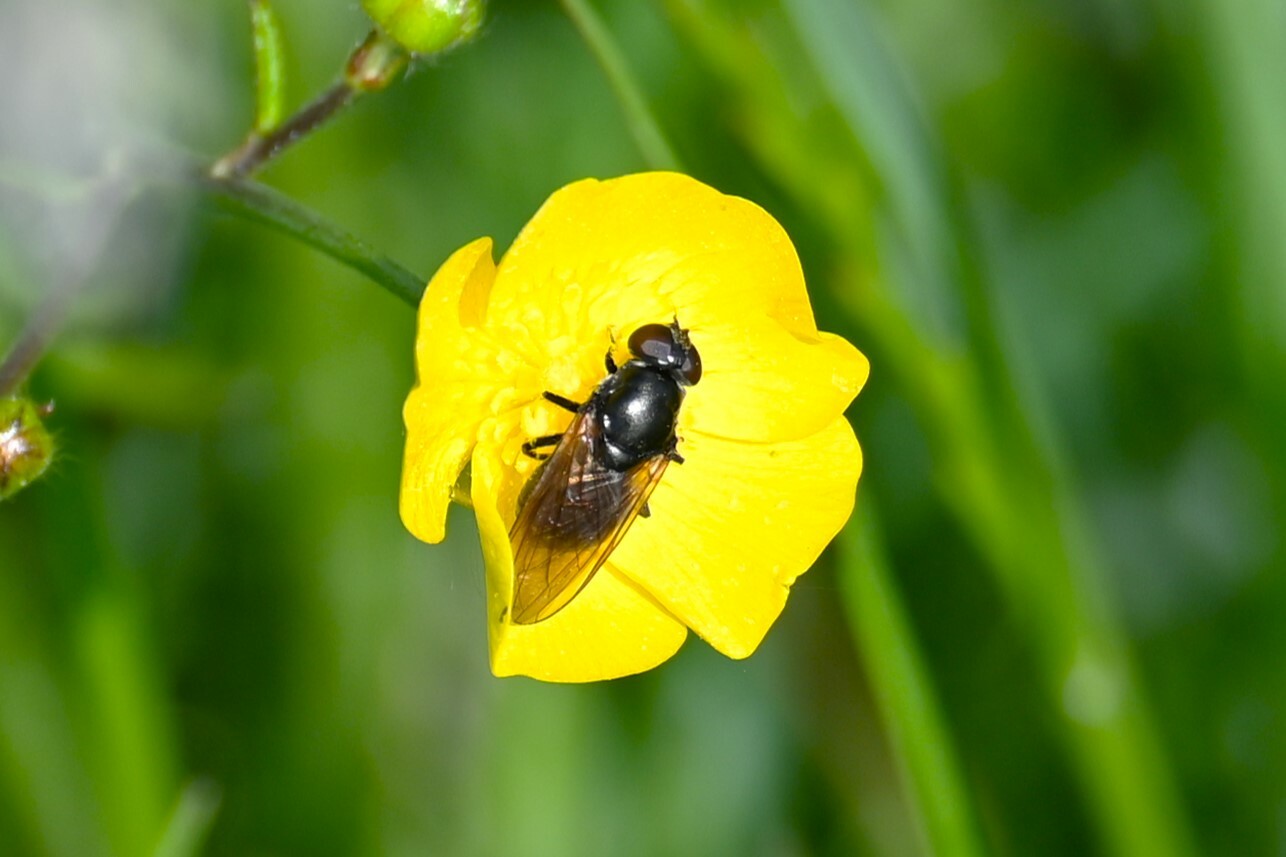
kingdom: Animalia
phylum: Arthropoda
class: Insecta
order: Diptera
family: Syrphidae
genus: Cheilosia
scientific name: Cheilosia pagana
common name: Hover fly
